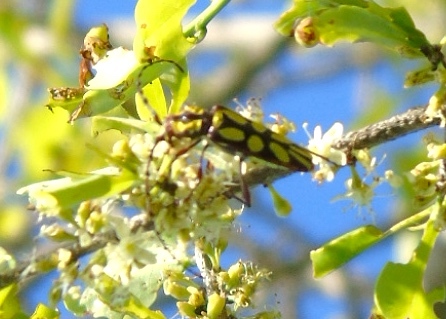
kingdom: Animalia
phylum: Arthropoda
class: Insecta
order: Coleoptera
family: Cerambycidae
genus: Ornithia
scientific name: Ornithia zapotensis
